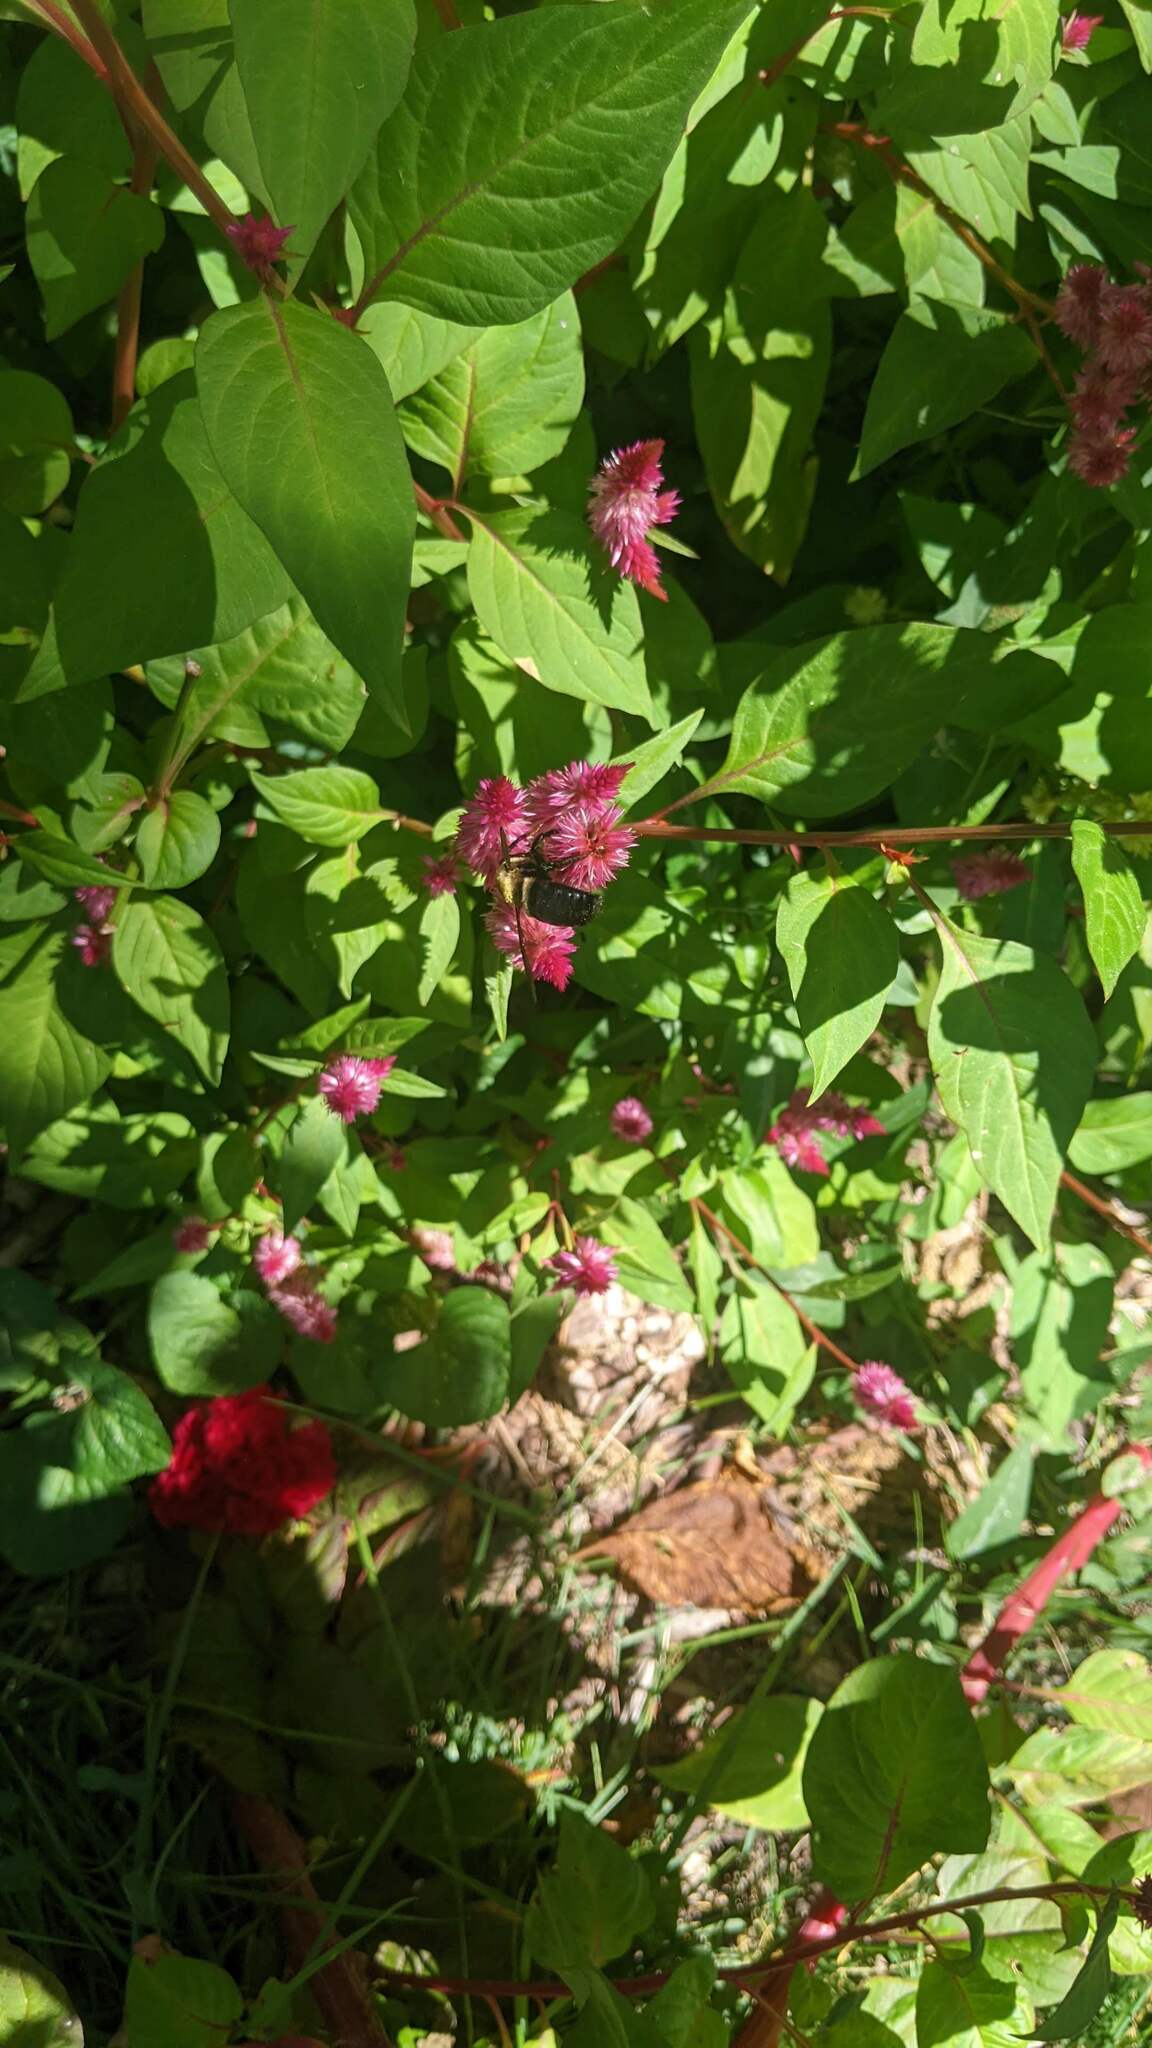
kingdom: Animalia
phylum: Arthropoda
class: Insecta
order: Hymenoptera
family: Apidae
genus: Xylocopa
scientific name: Xylocopa virginica
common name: Carpenter bee
